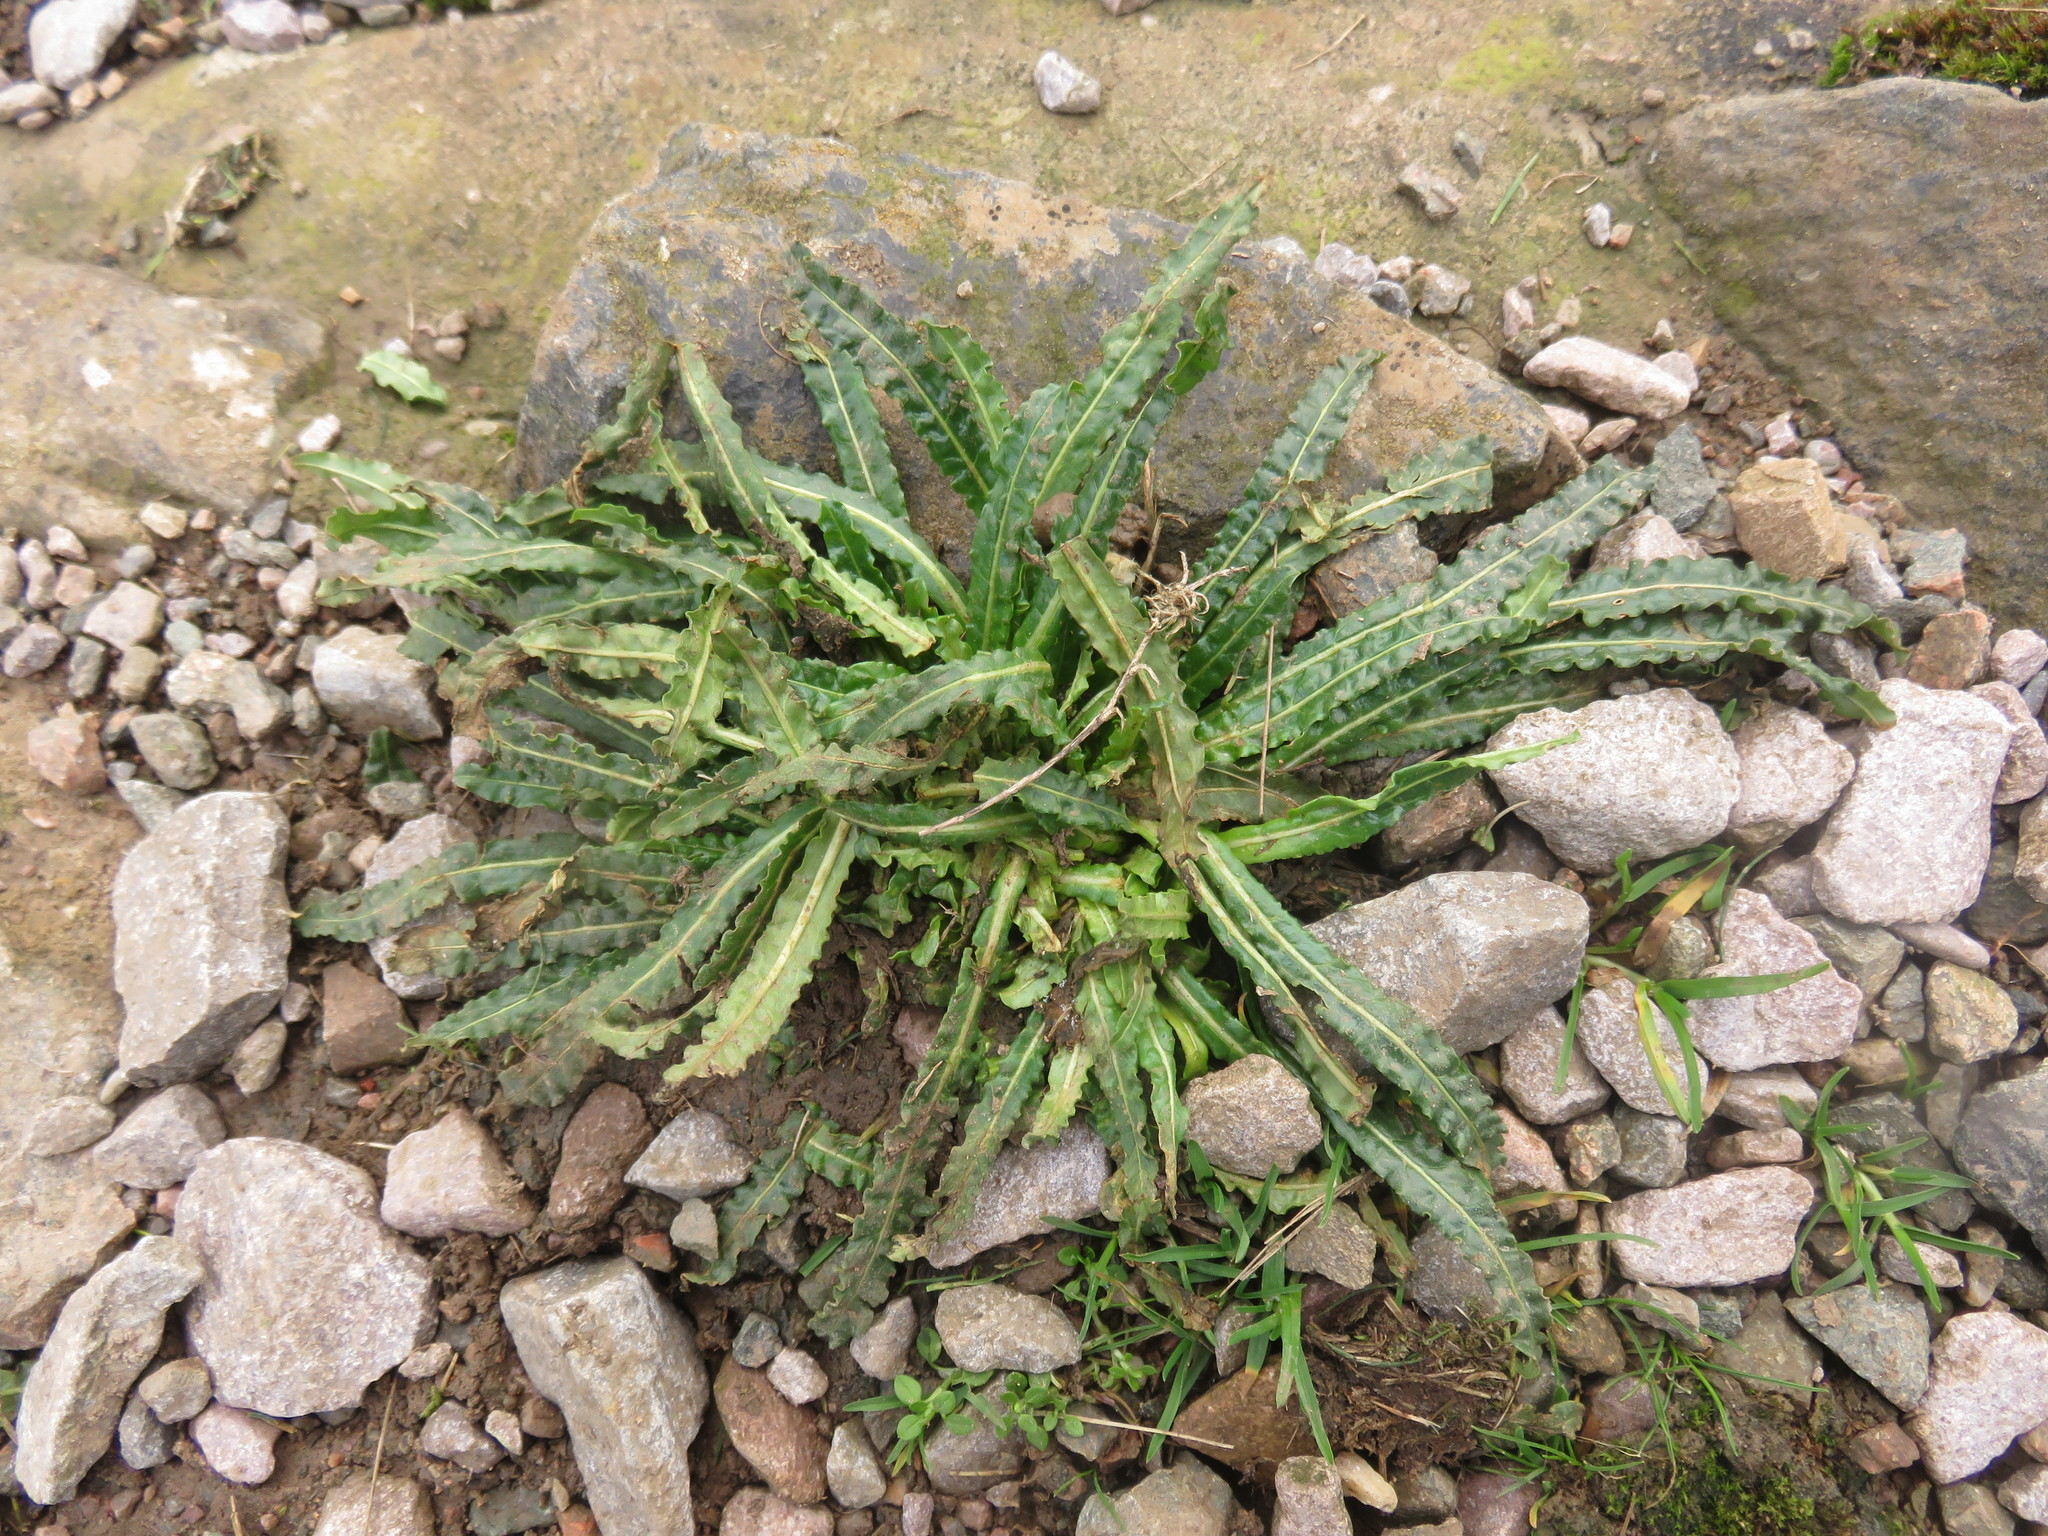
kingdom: Plantae
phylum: Tracheophyta
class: Magnoliopsida
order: Brassicales
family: Resedaceae
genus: Reseda
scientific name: Reseda luteola
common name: Weld
